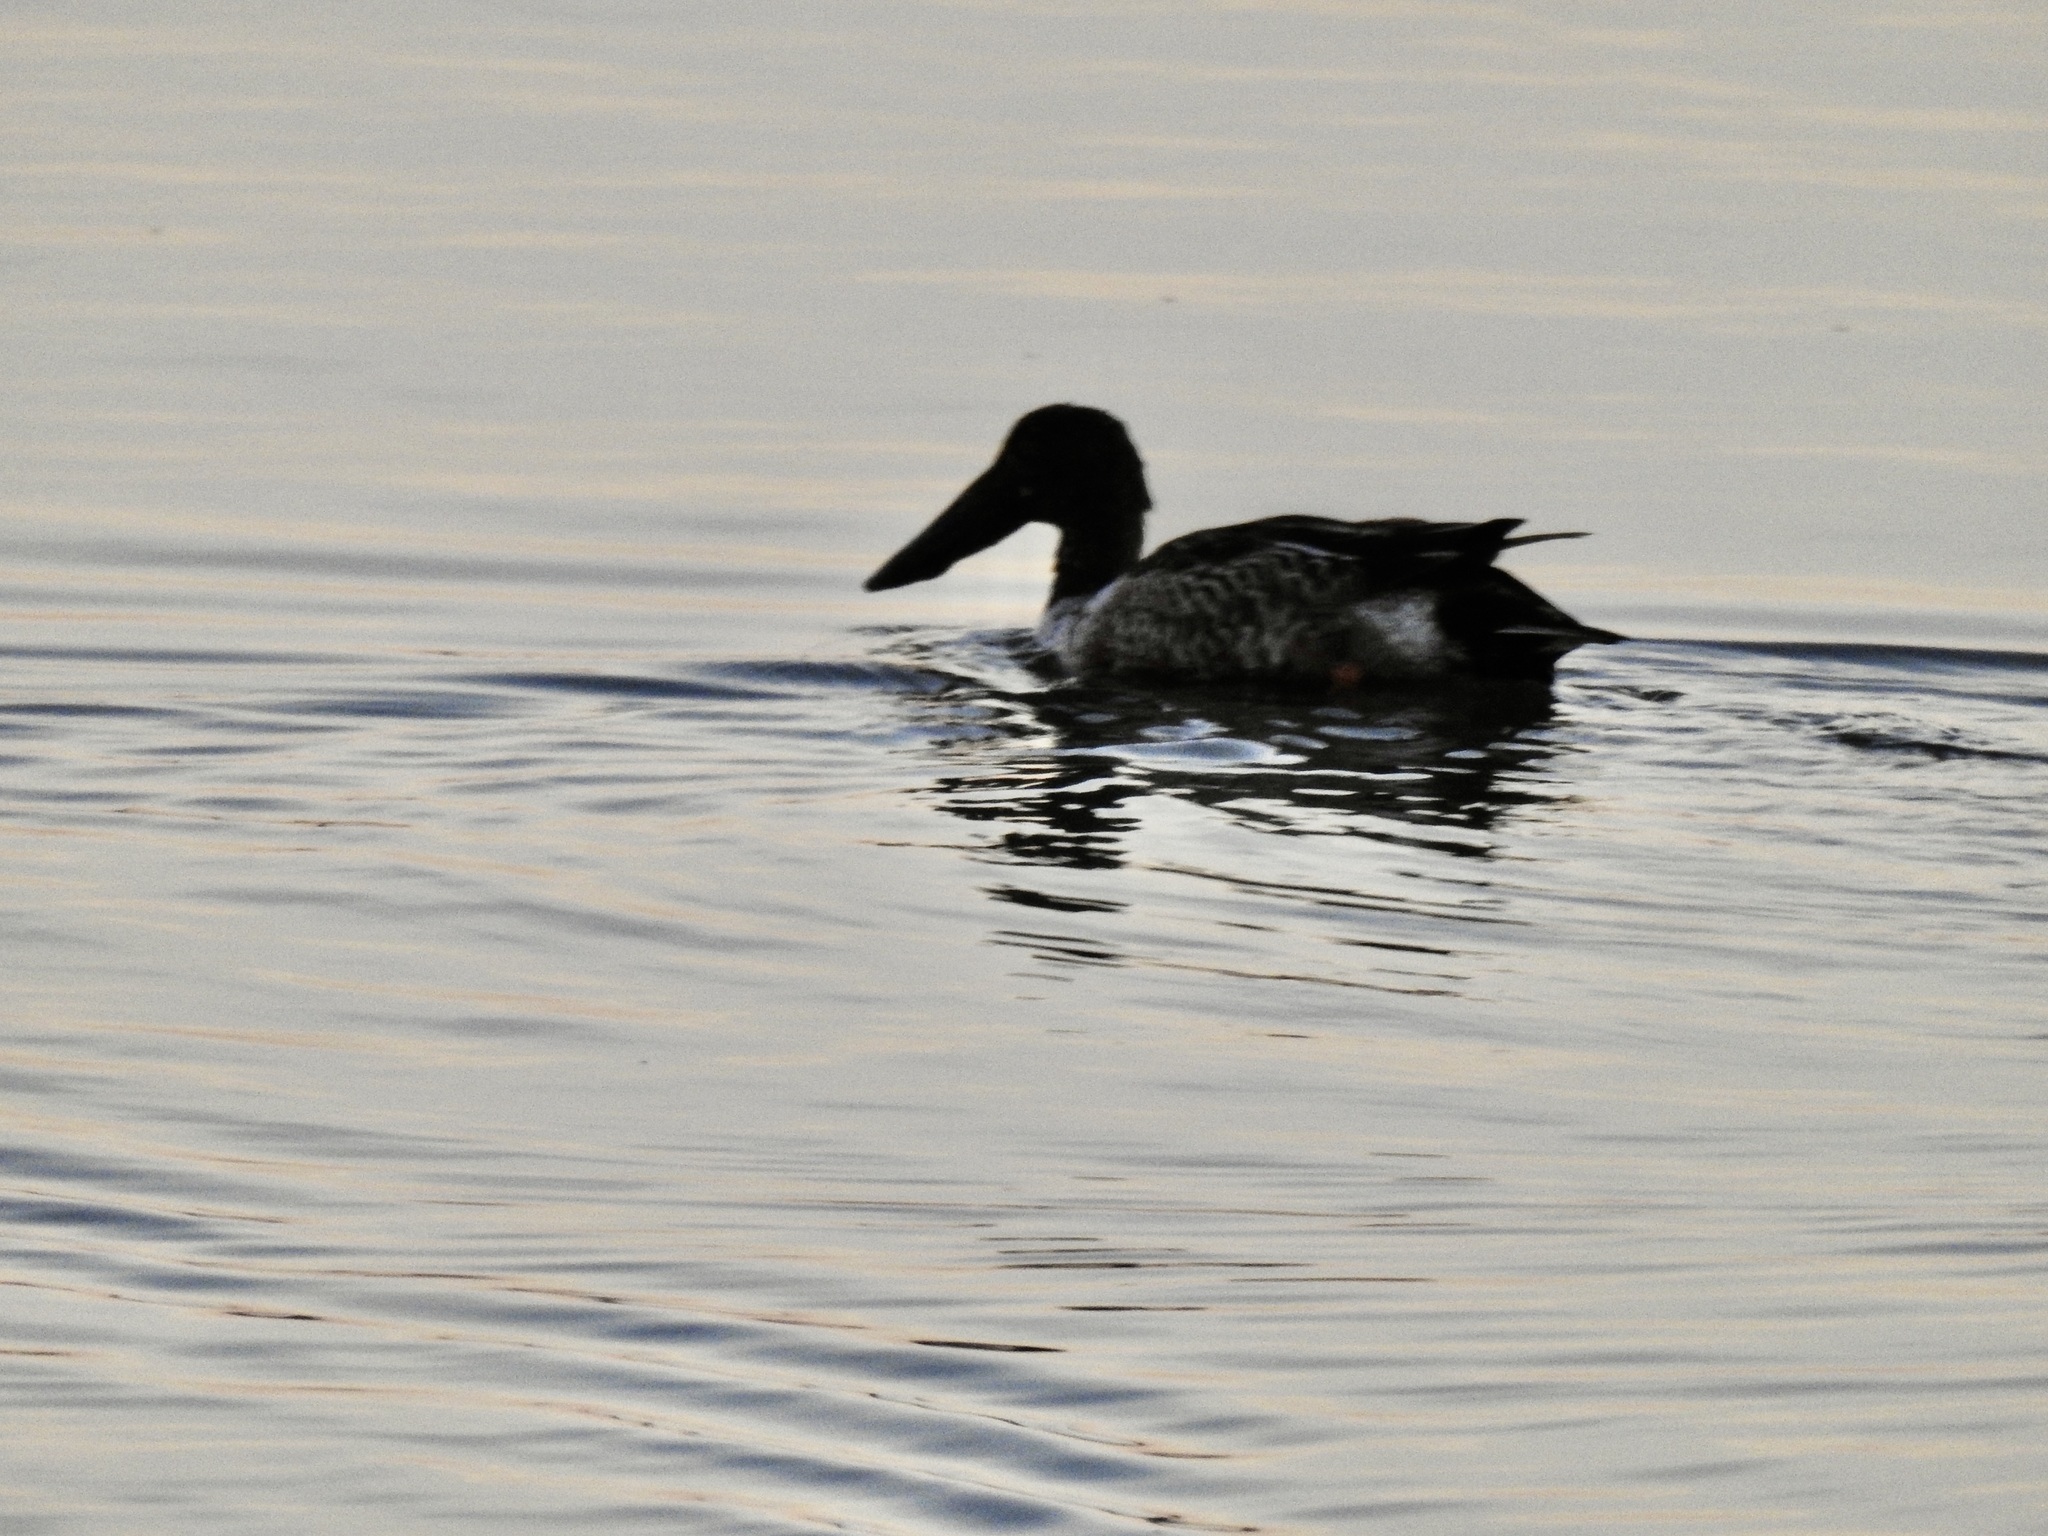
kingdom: Animalia
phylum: Chordata
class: Aves
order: Anseriformes
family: Anatidae
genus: Spatula
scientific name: Spatula clypeata
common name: Northern shoveler
